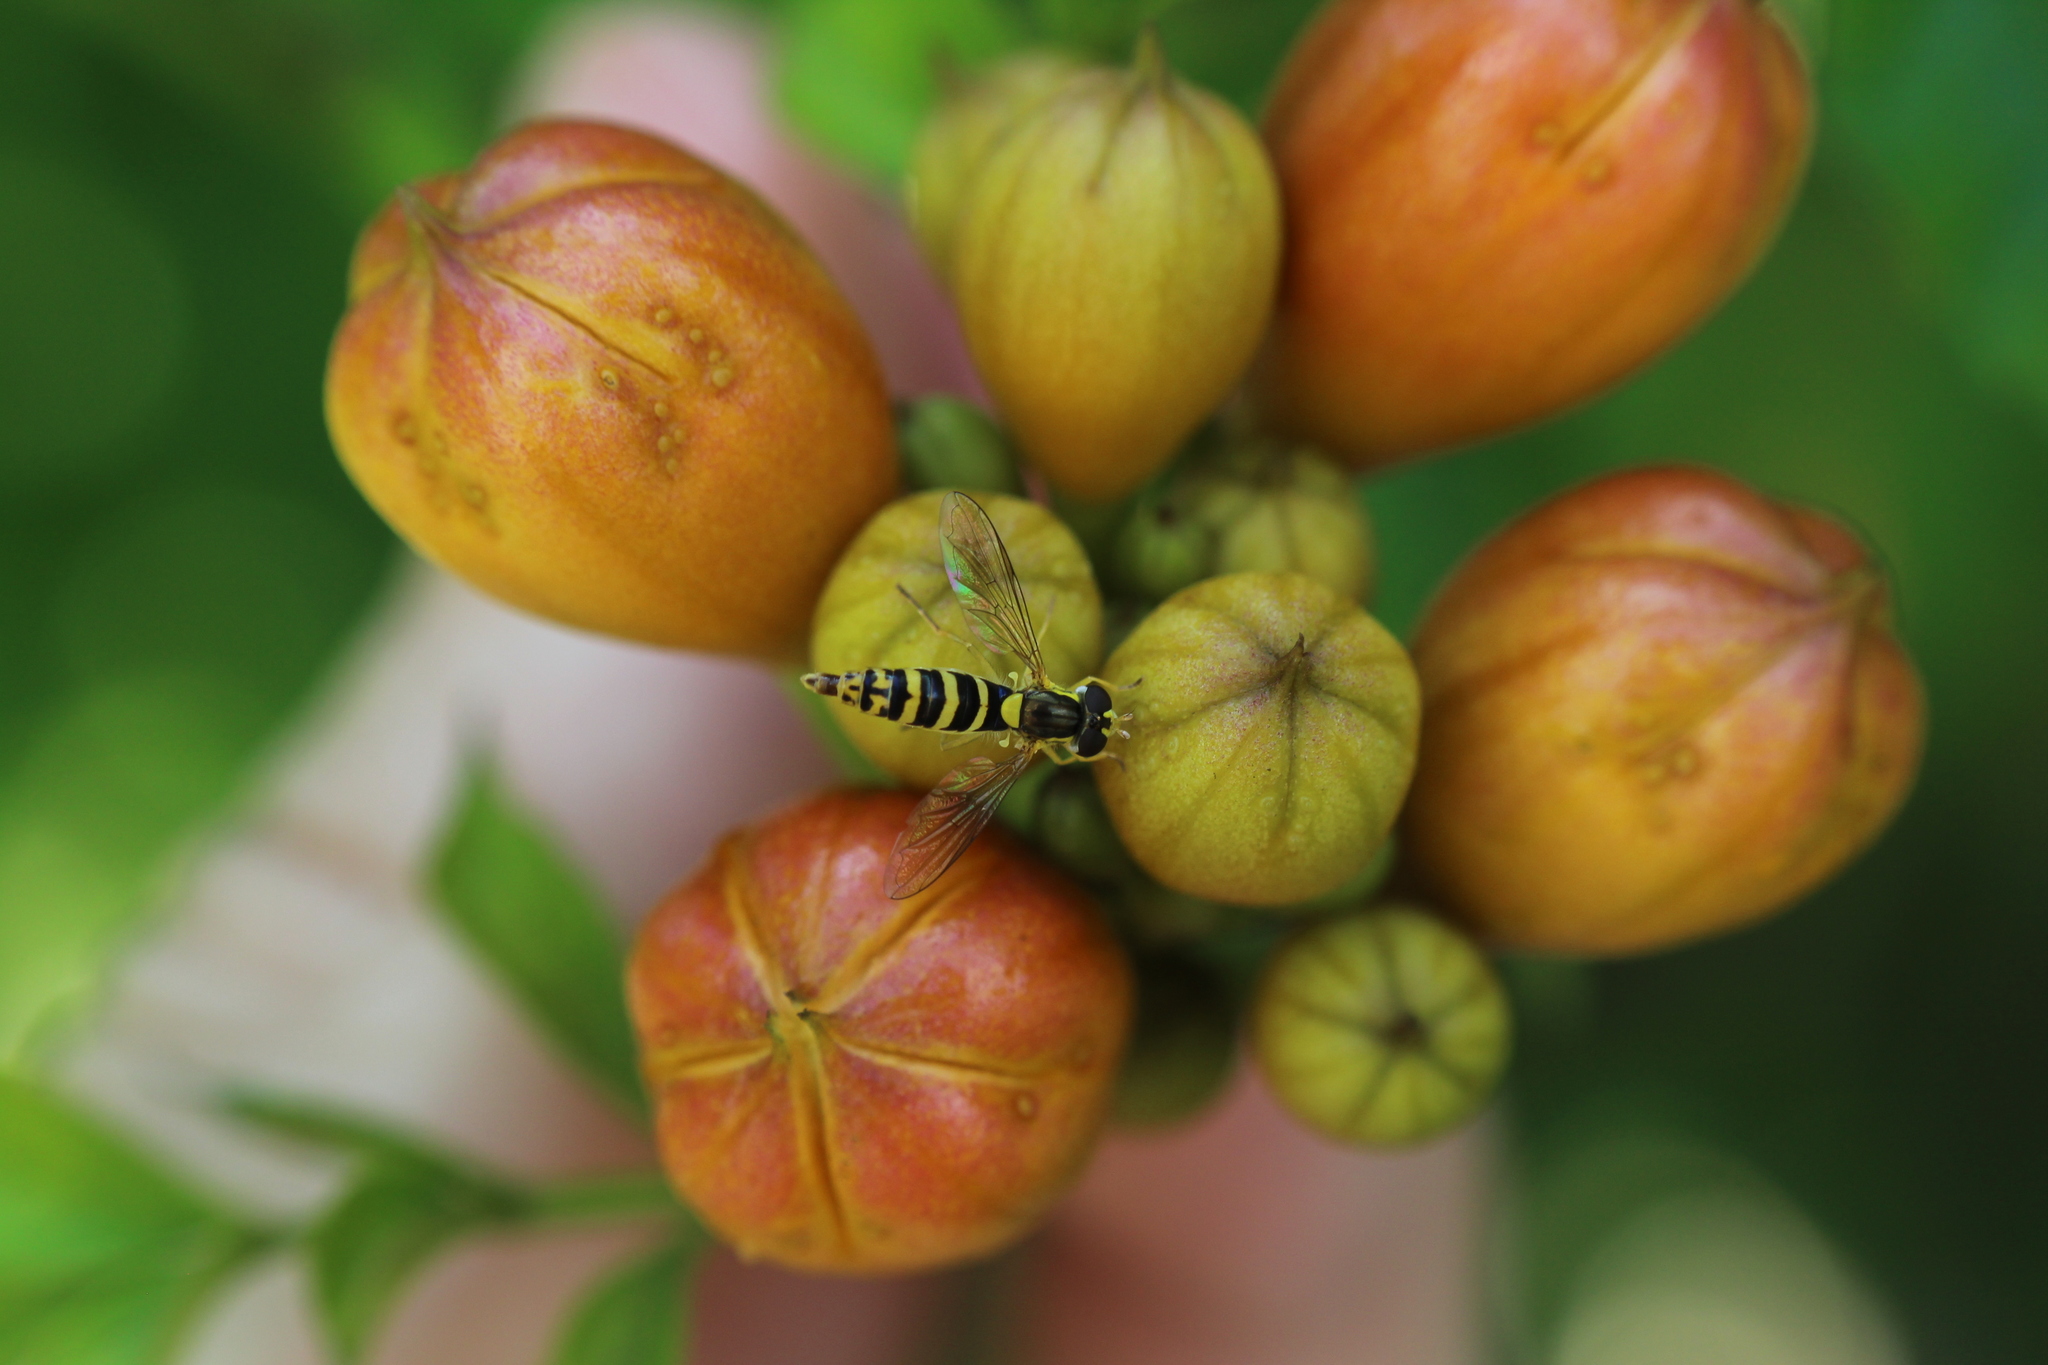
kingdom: Animalia
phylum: Arthropoda
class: Insecta
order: Diptera
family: Syrphidae
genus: Sphaerophoria
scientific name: Sphaerophoria
